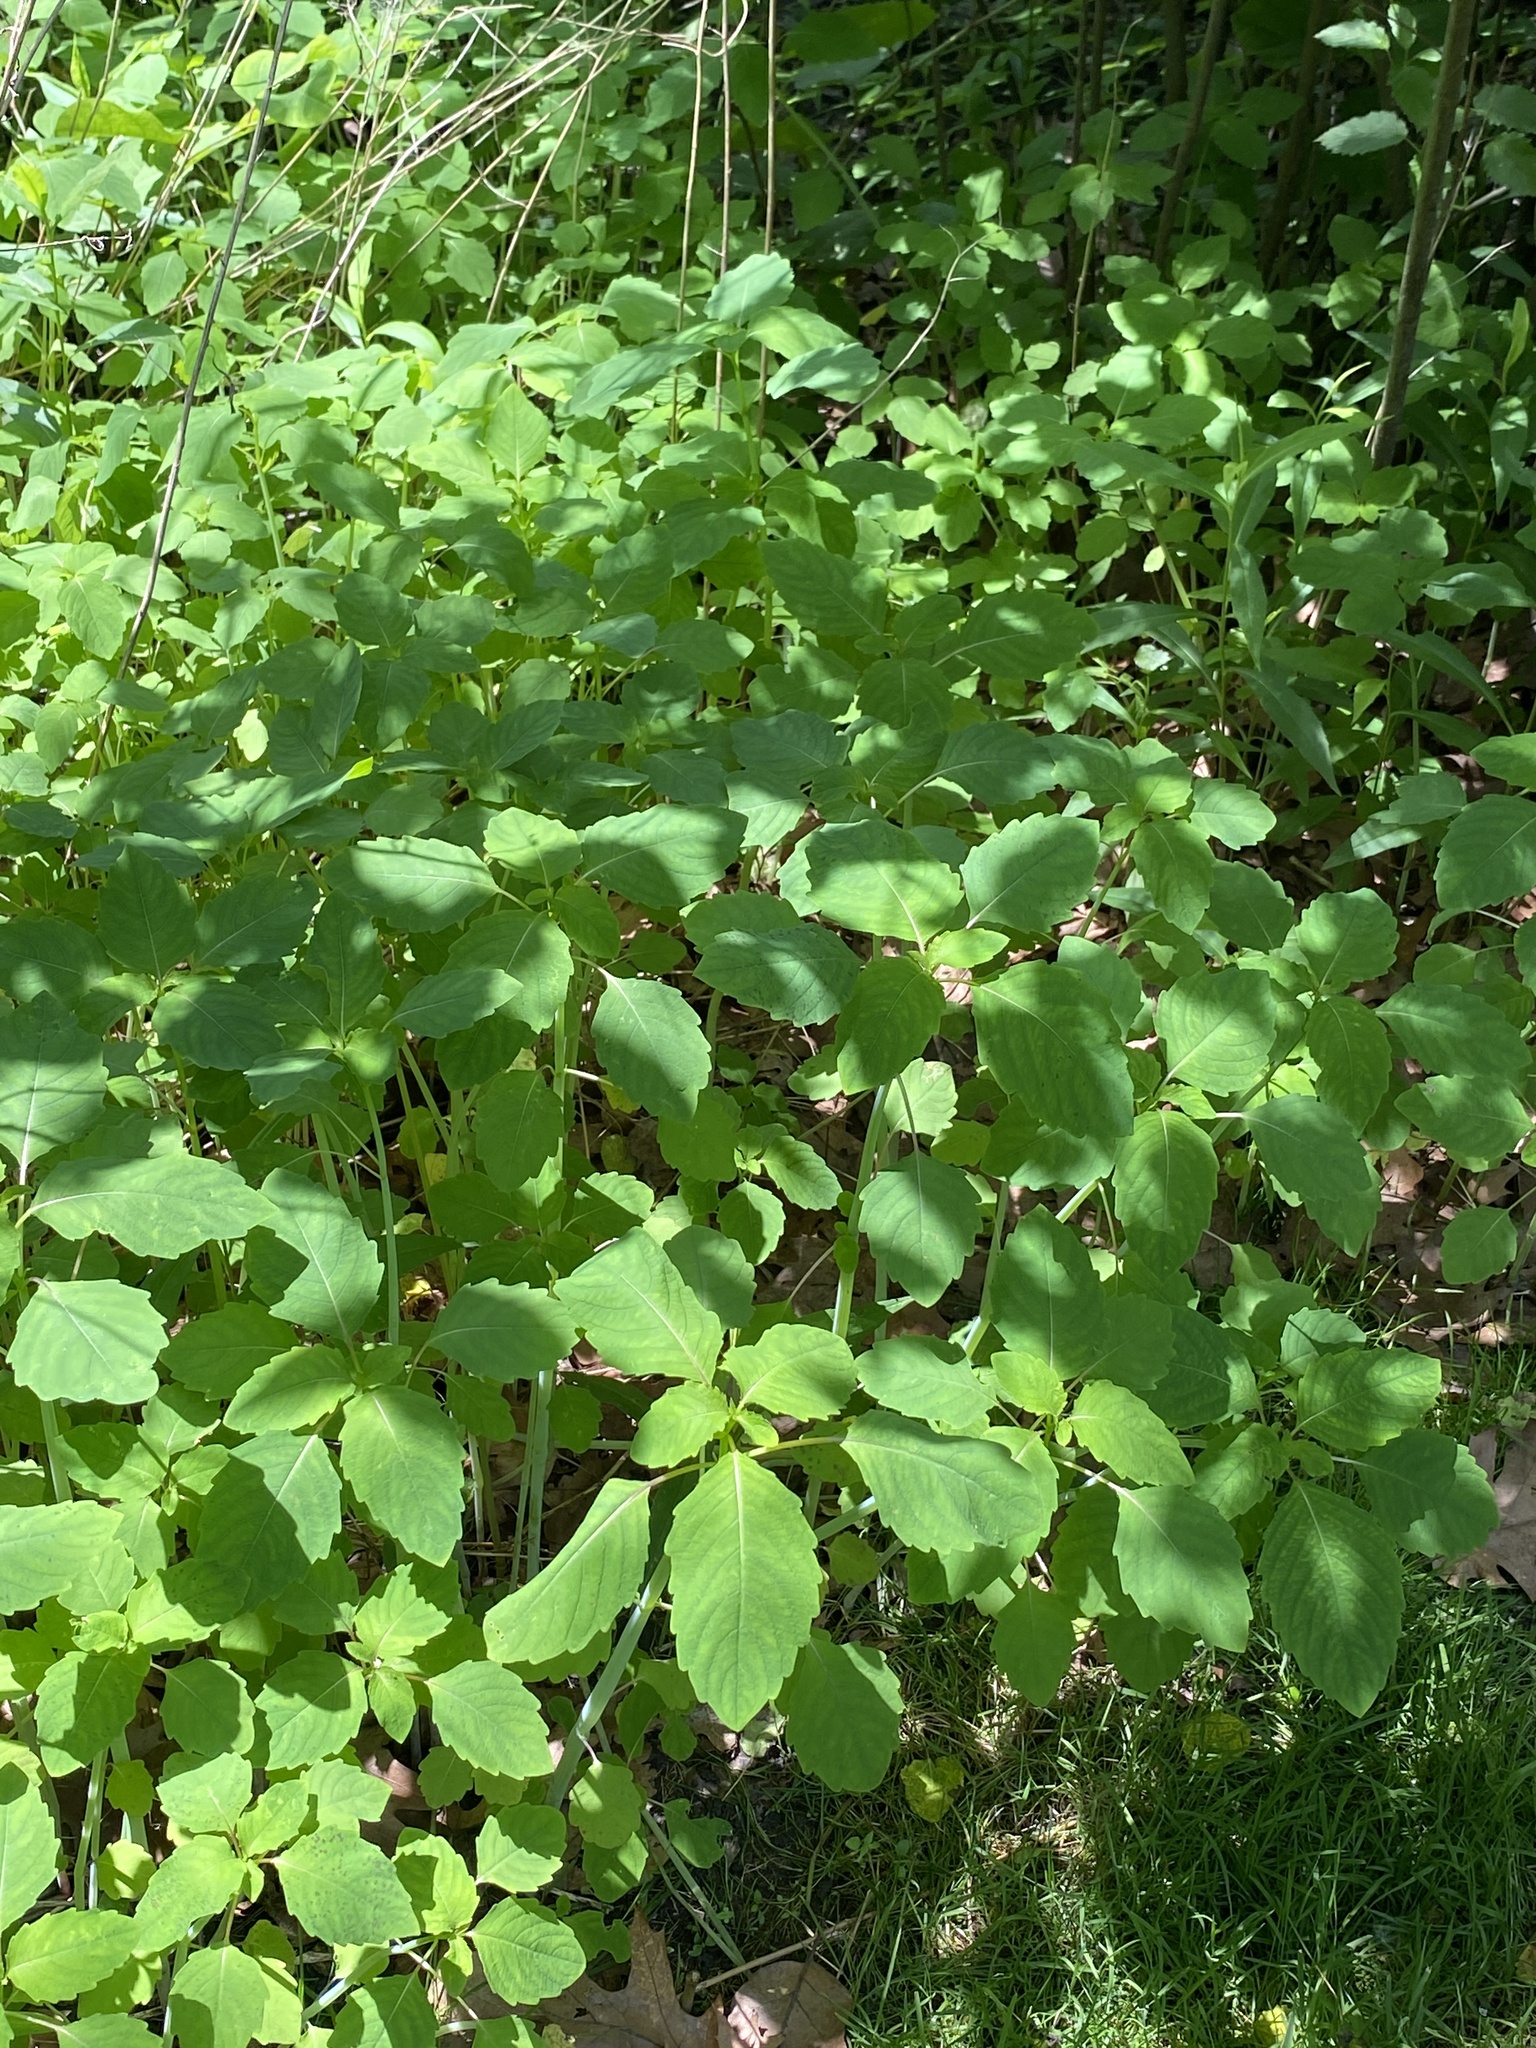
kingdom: Plantae
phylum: Tracheophyta
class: Magnoliopsida
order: Ericales
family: Balsaminaceae
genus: Impatiens
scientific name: Impatiens
